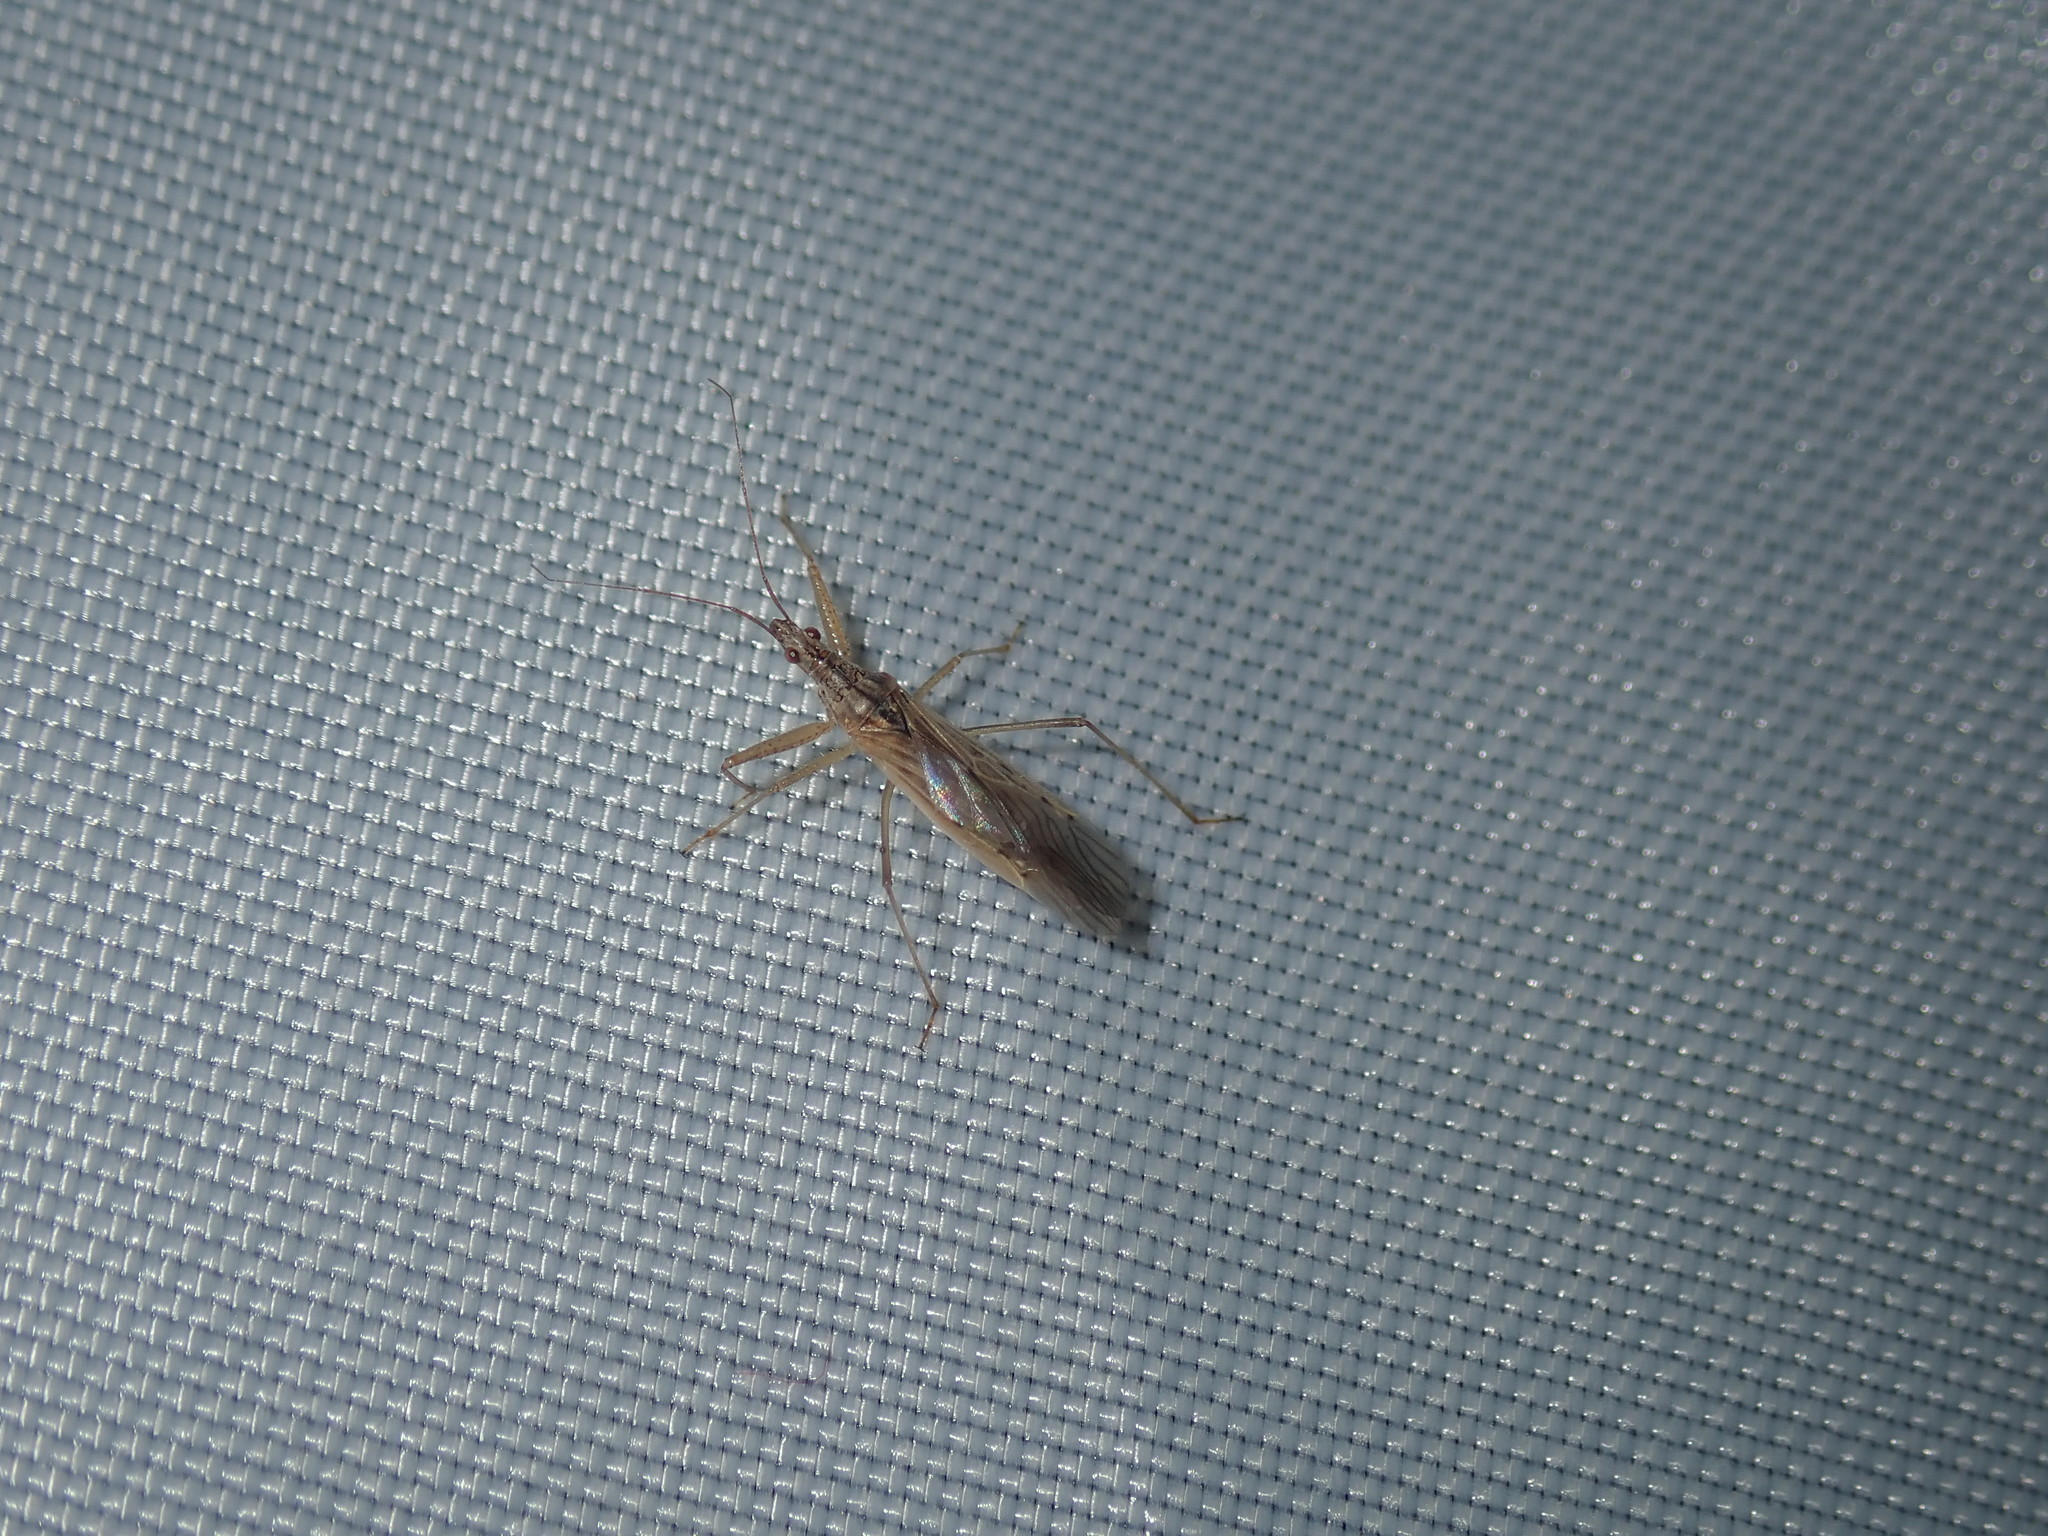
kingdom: Animalia
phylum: Arthropoda
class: Insecta
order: Hemiptera
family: Nabidae
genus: Nabis
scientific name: Nabis kinbergii
